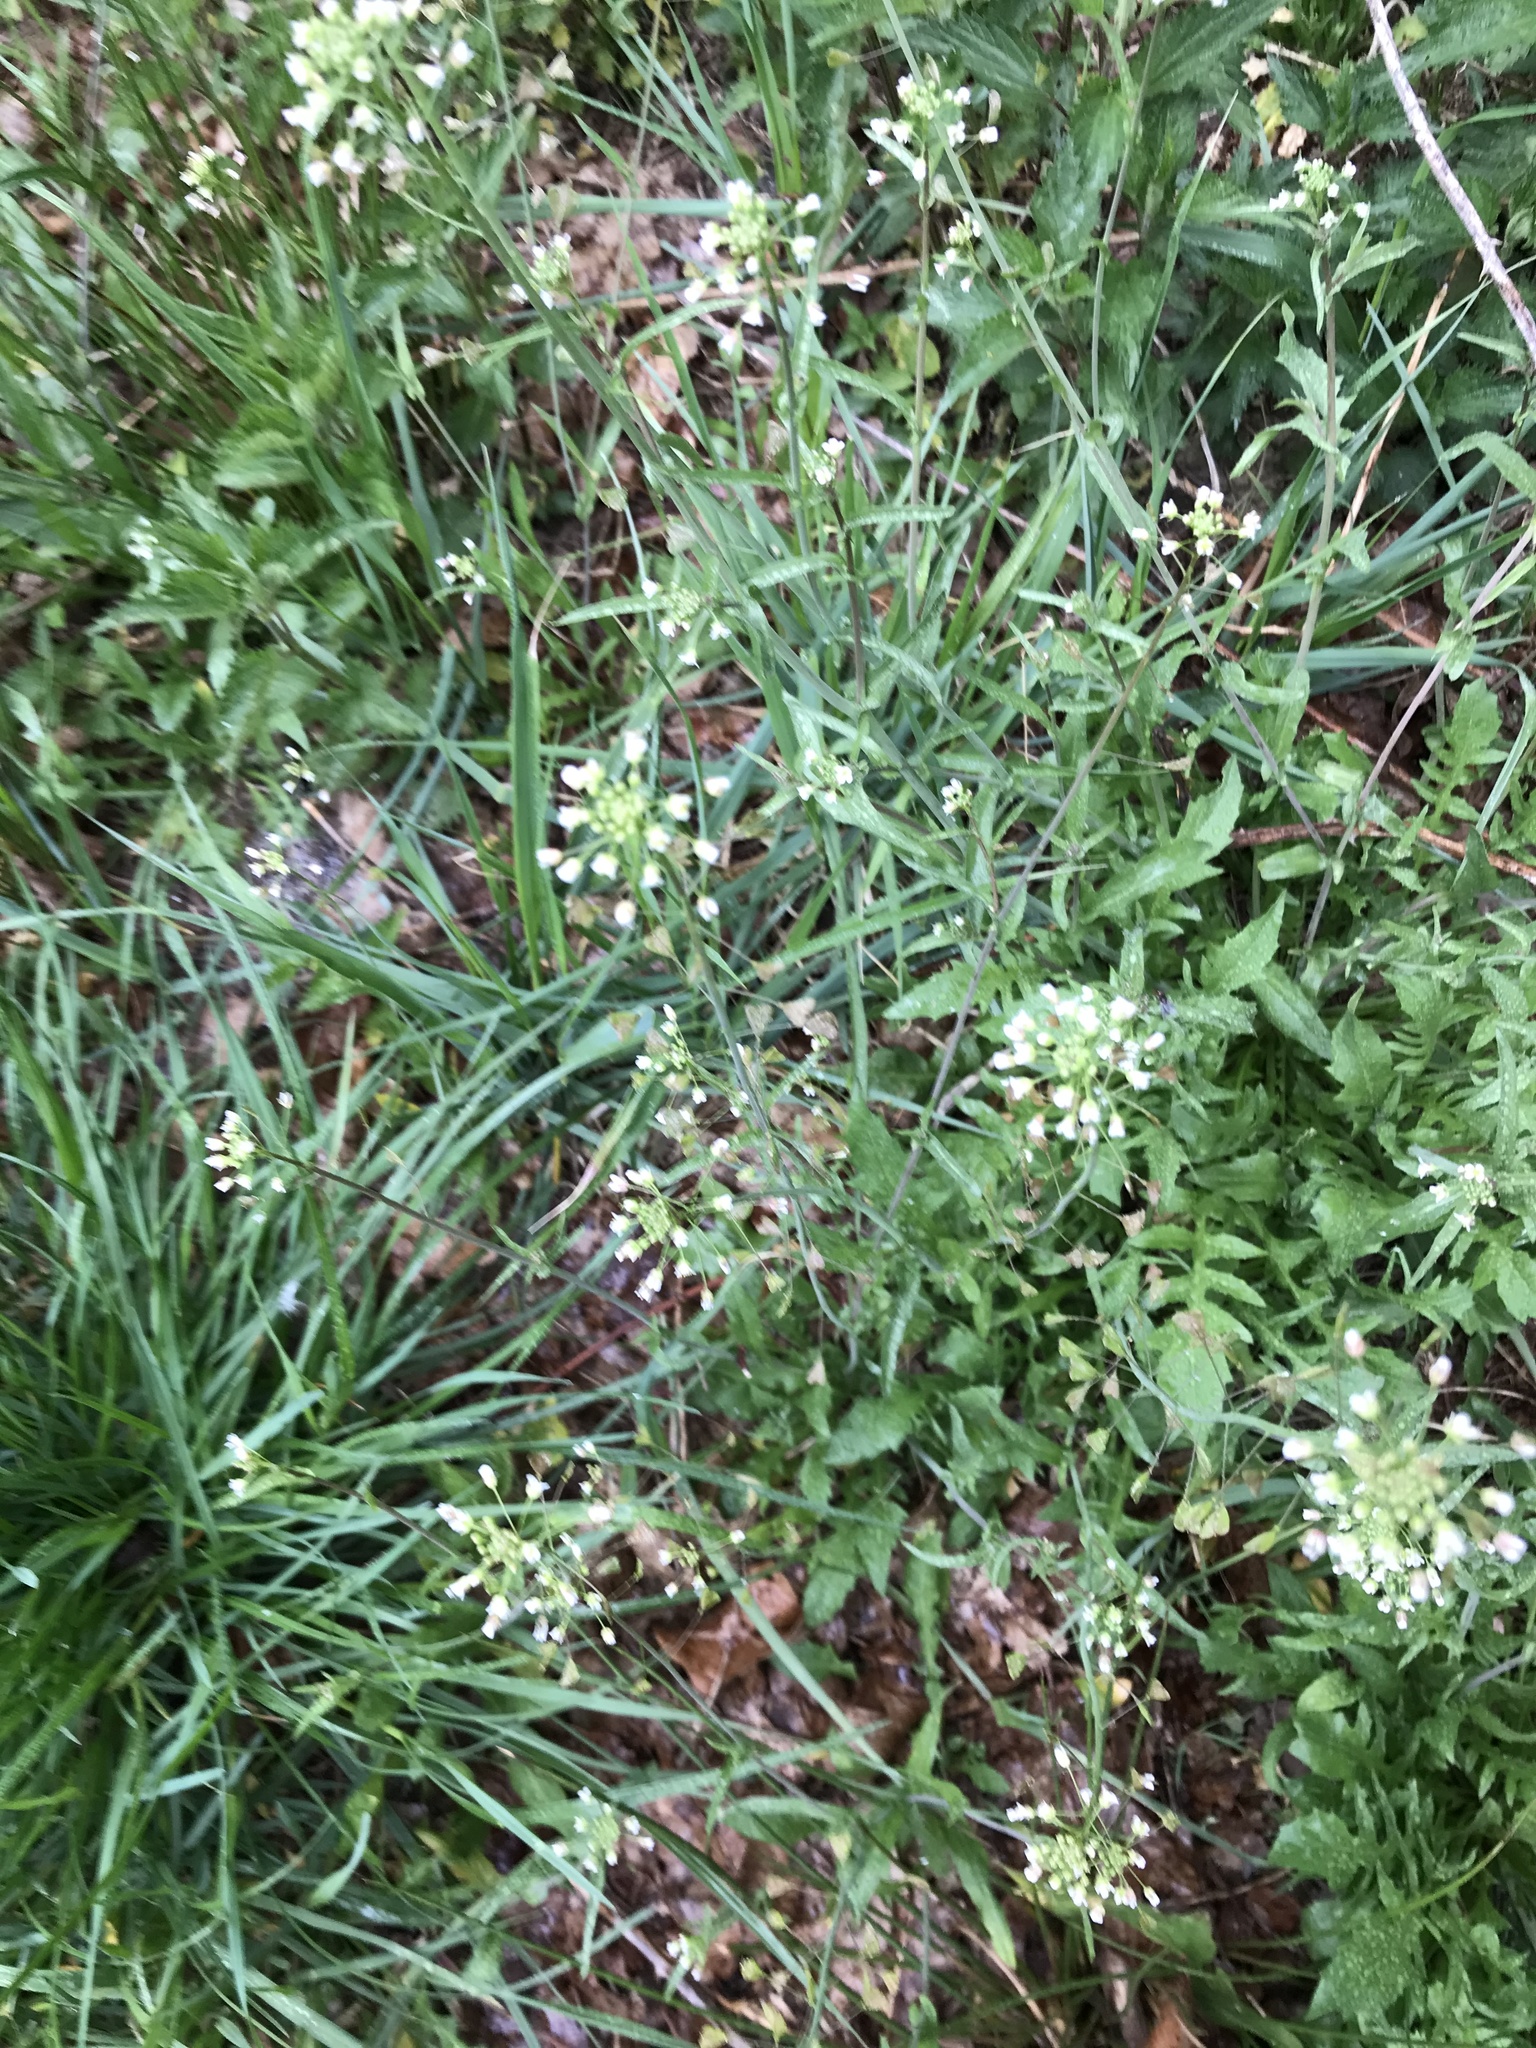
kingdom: Plantae
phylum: Tracheophyta
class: Magnoliopsida
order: Brassicales
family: Brassicaceae
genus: Capsella
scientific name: Capsella bursa-pastoris
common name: Shepherd's purse
